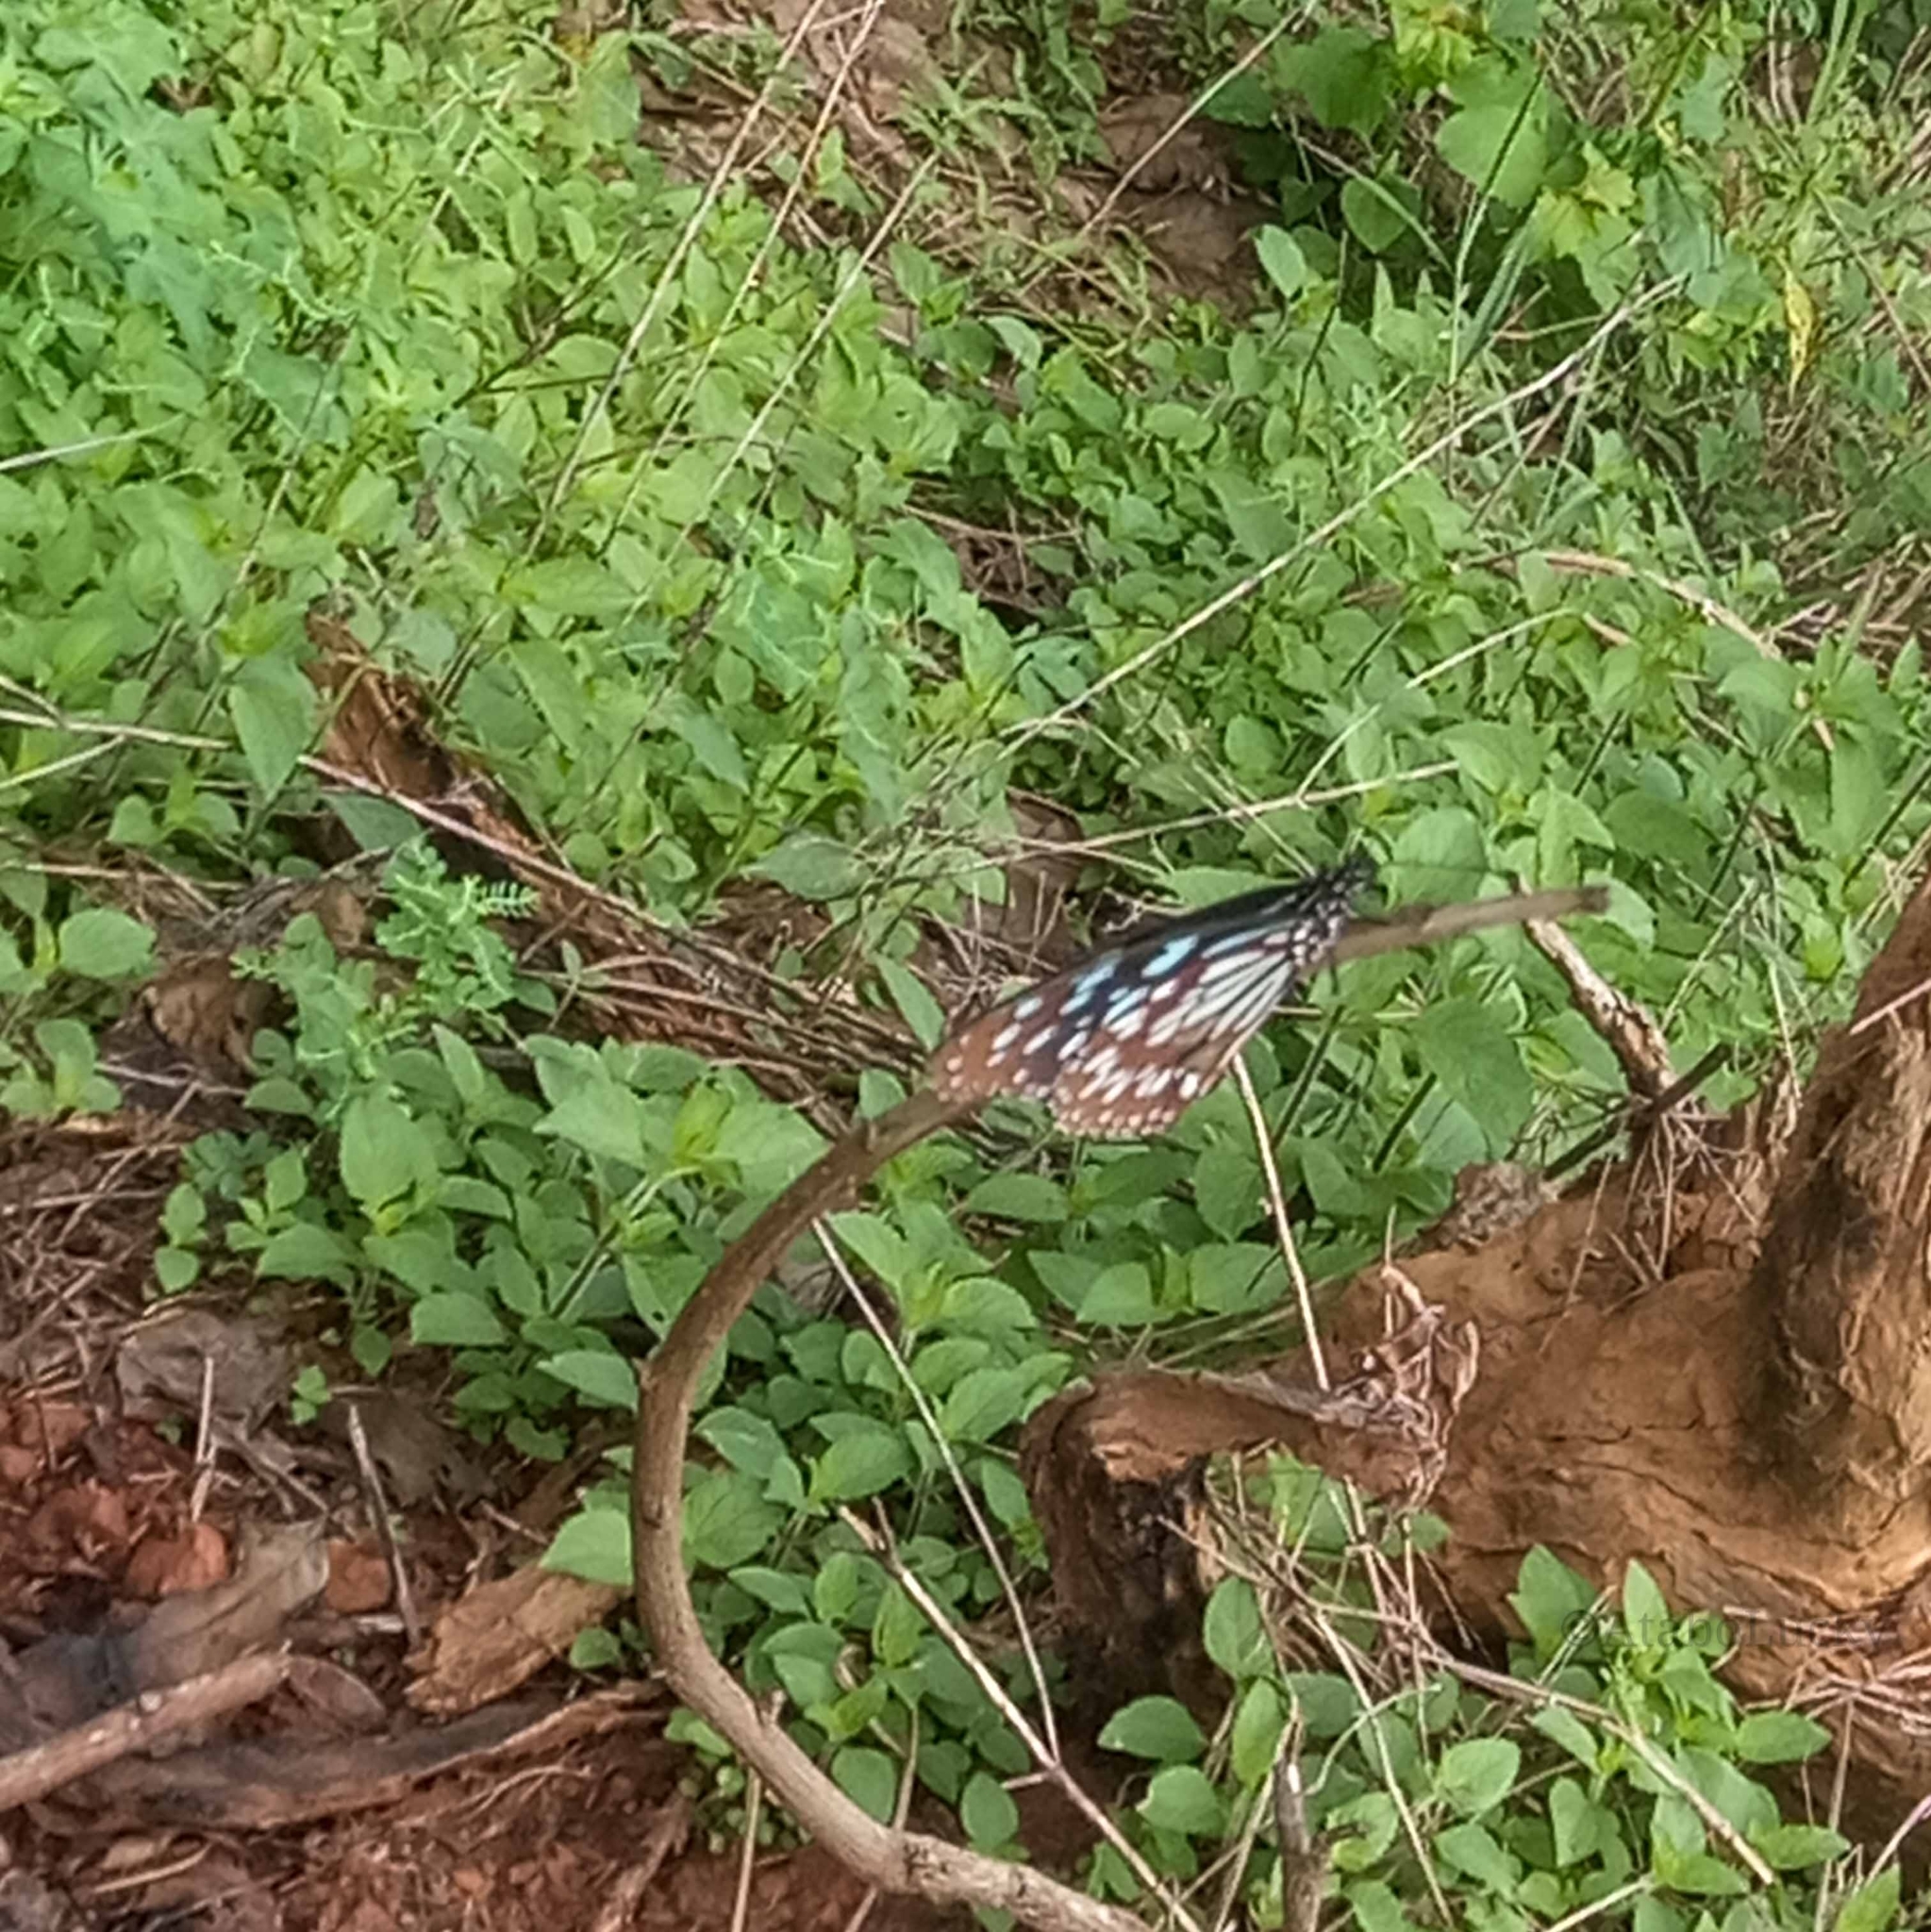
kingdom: Animalia
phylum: Arthropoda
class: Insecta
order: Lepidoptera
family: Nymphalidae
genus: Tirumala
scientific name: Tirumala petiverana
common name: Blue monarch
